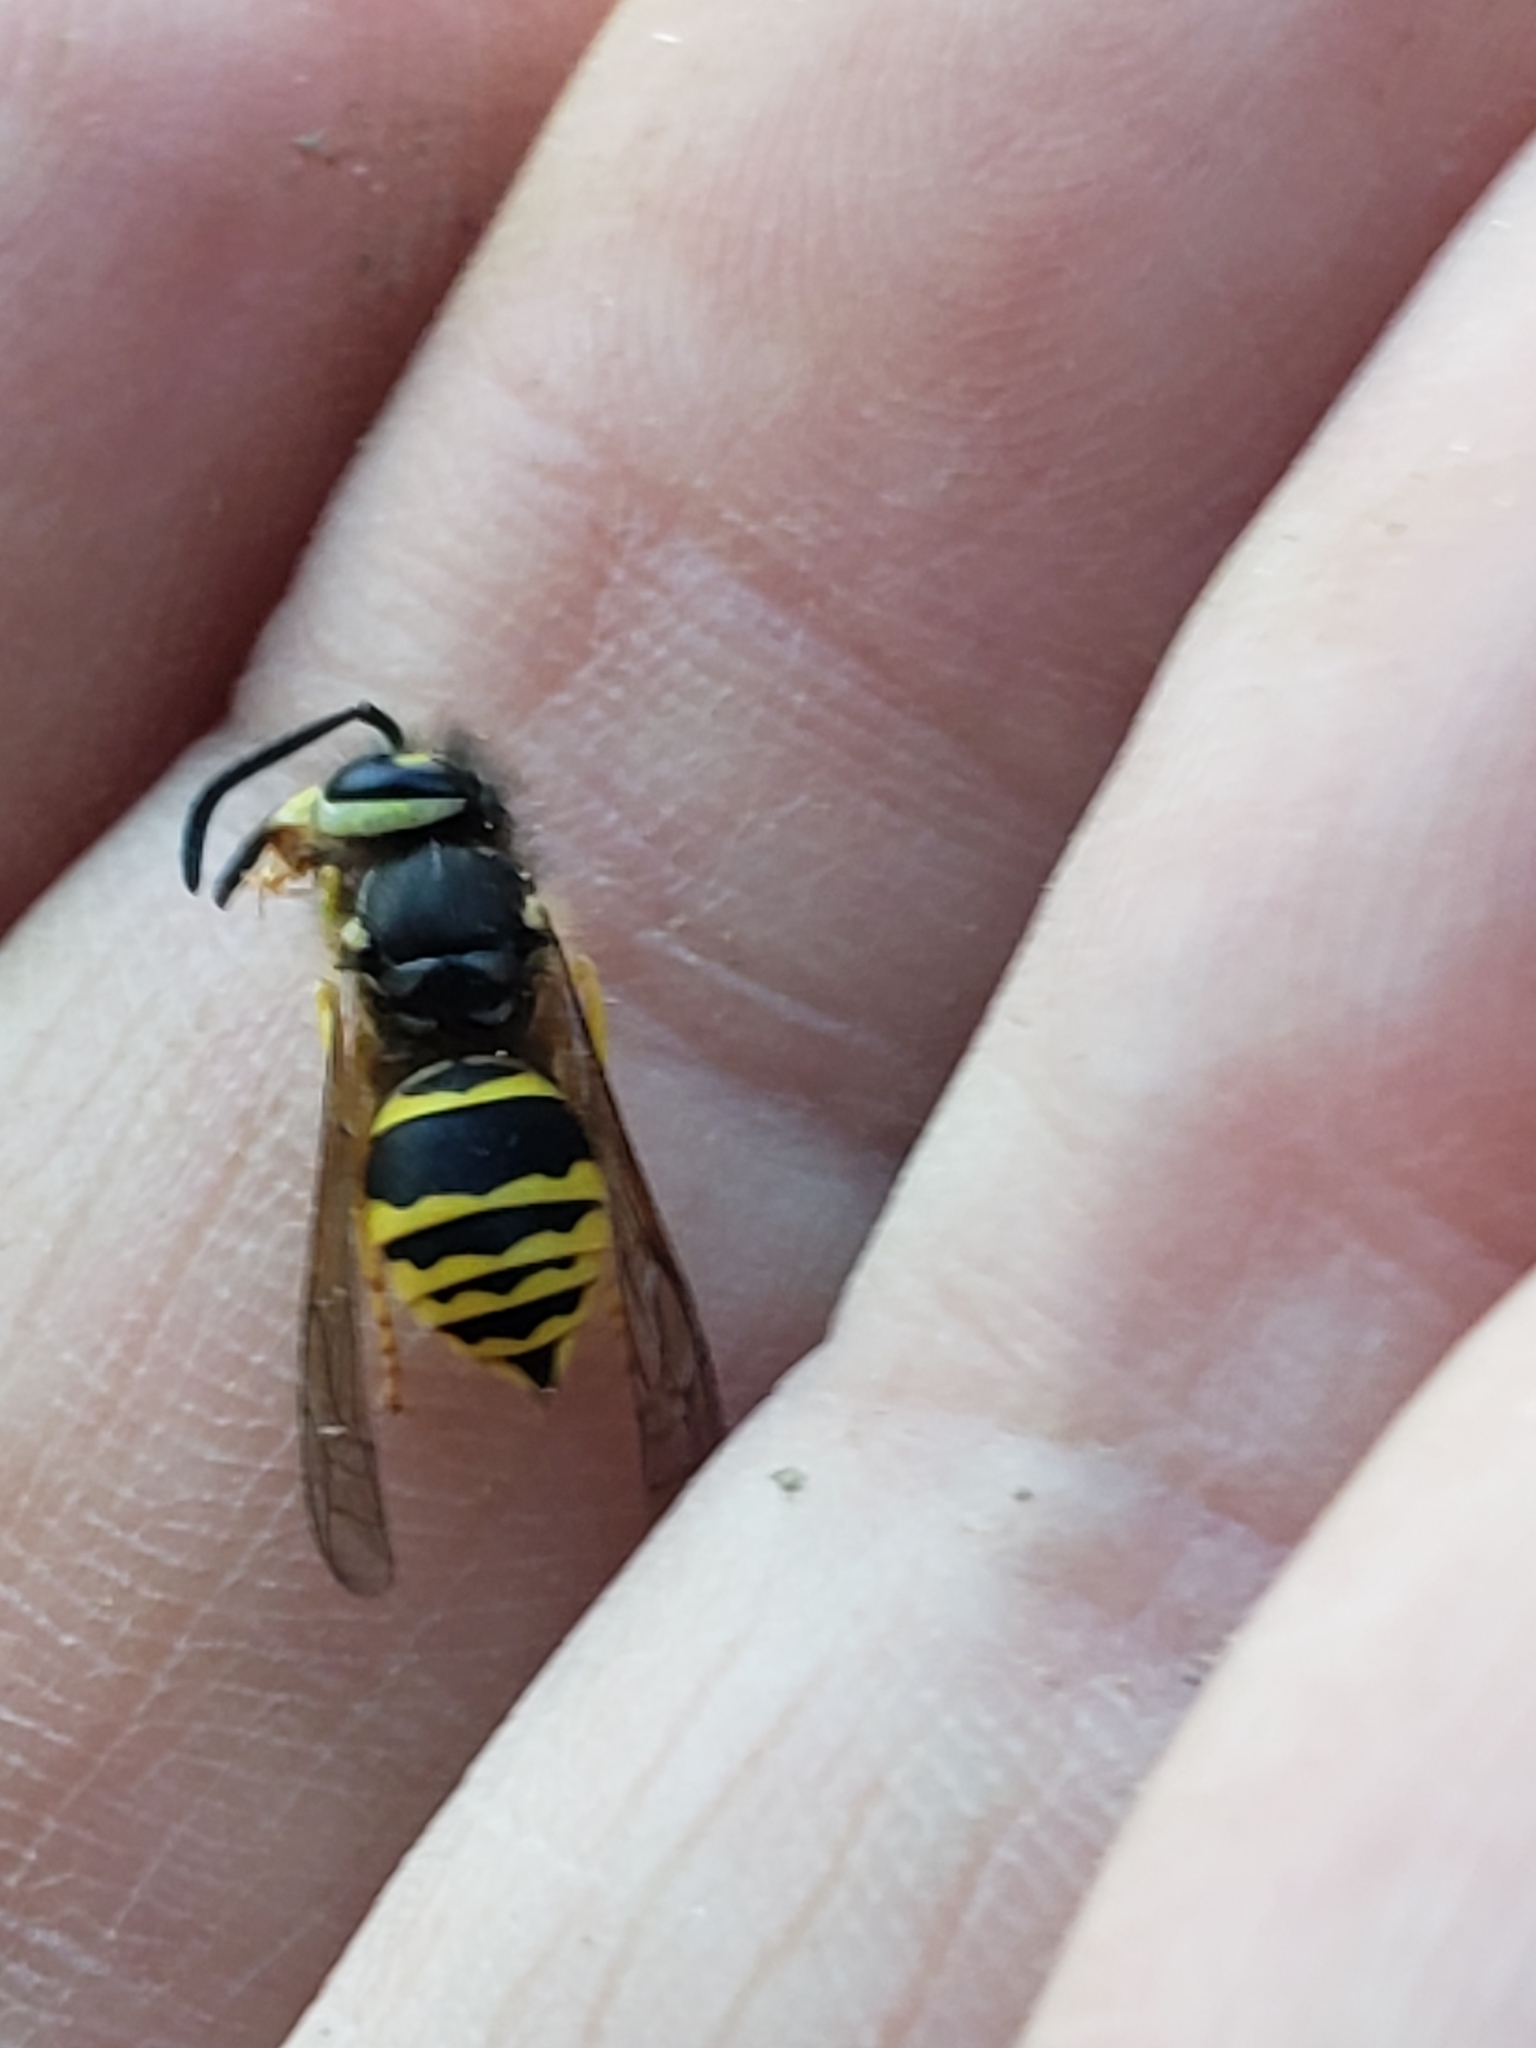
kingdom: Animalia
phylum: Arthropoda
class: Insecta
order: Hymenoptera
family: Vespidae
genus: Vespula
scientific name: Vespula maculifrons
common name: Eastern yellowjacket
